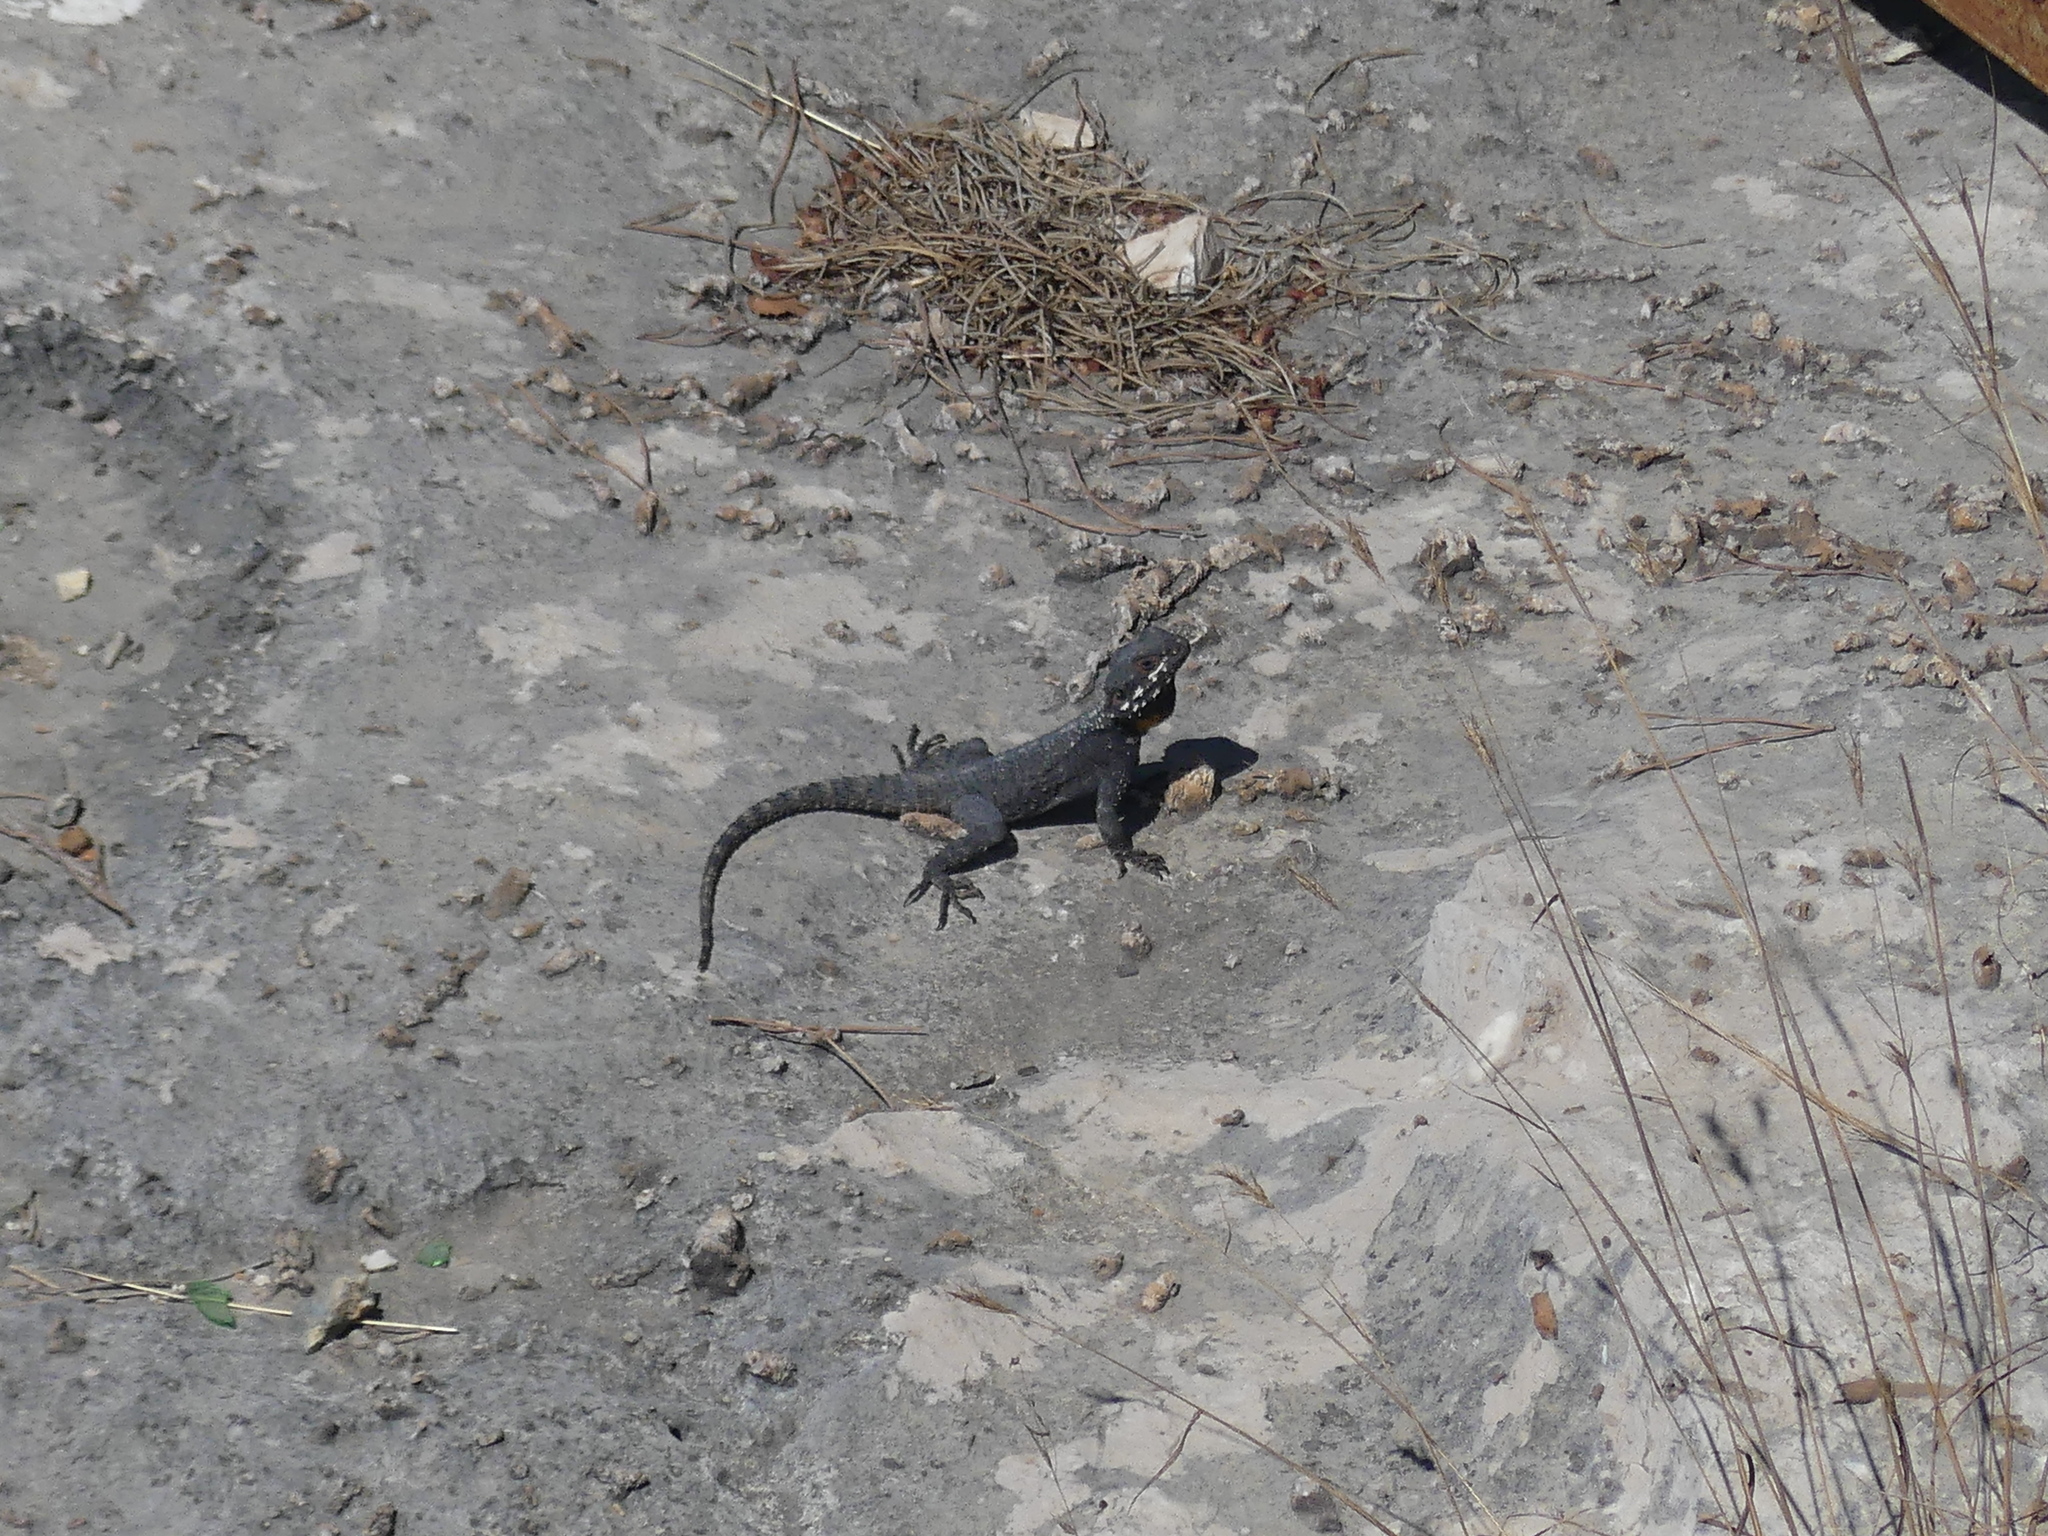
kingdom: Animalia
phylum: Chordata
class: Squamata
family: Agamidae
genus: Laudakia
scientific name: Laudakia vulgaris
